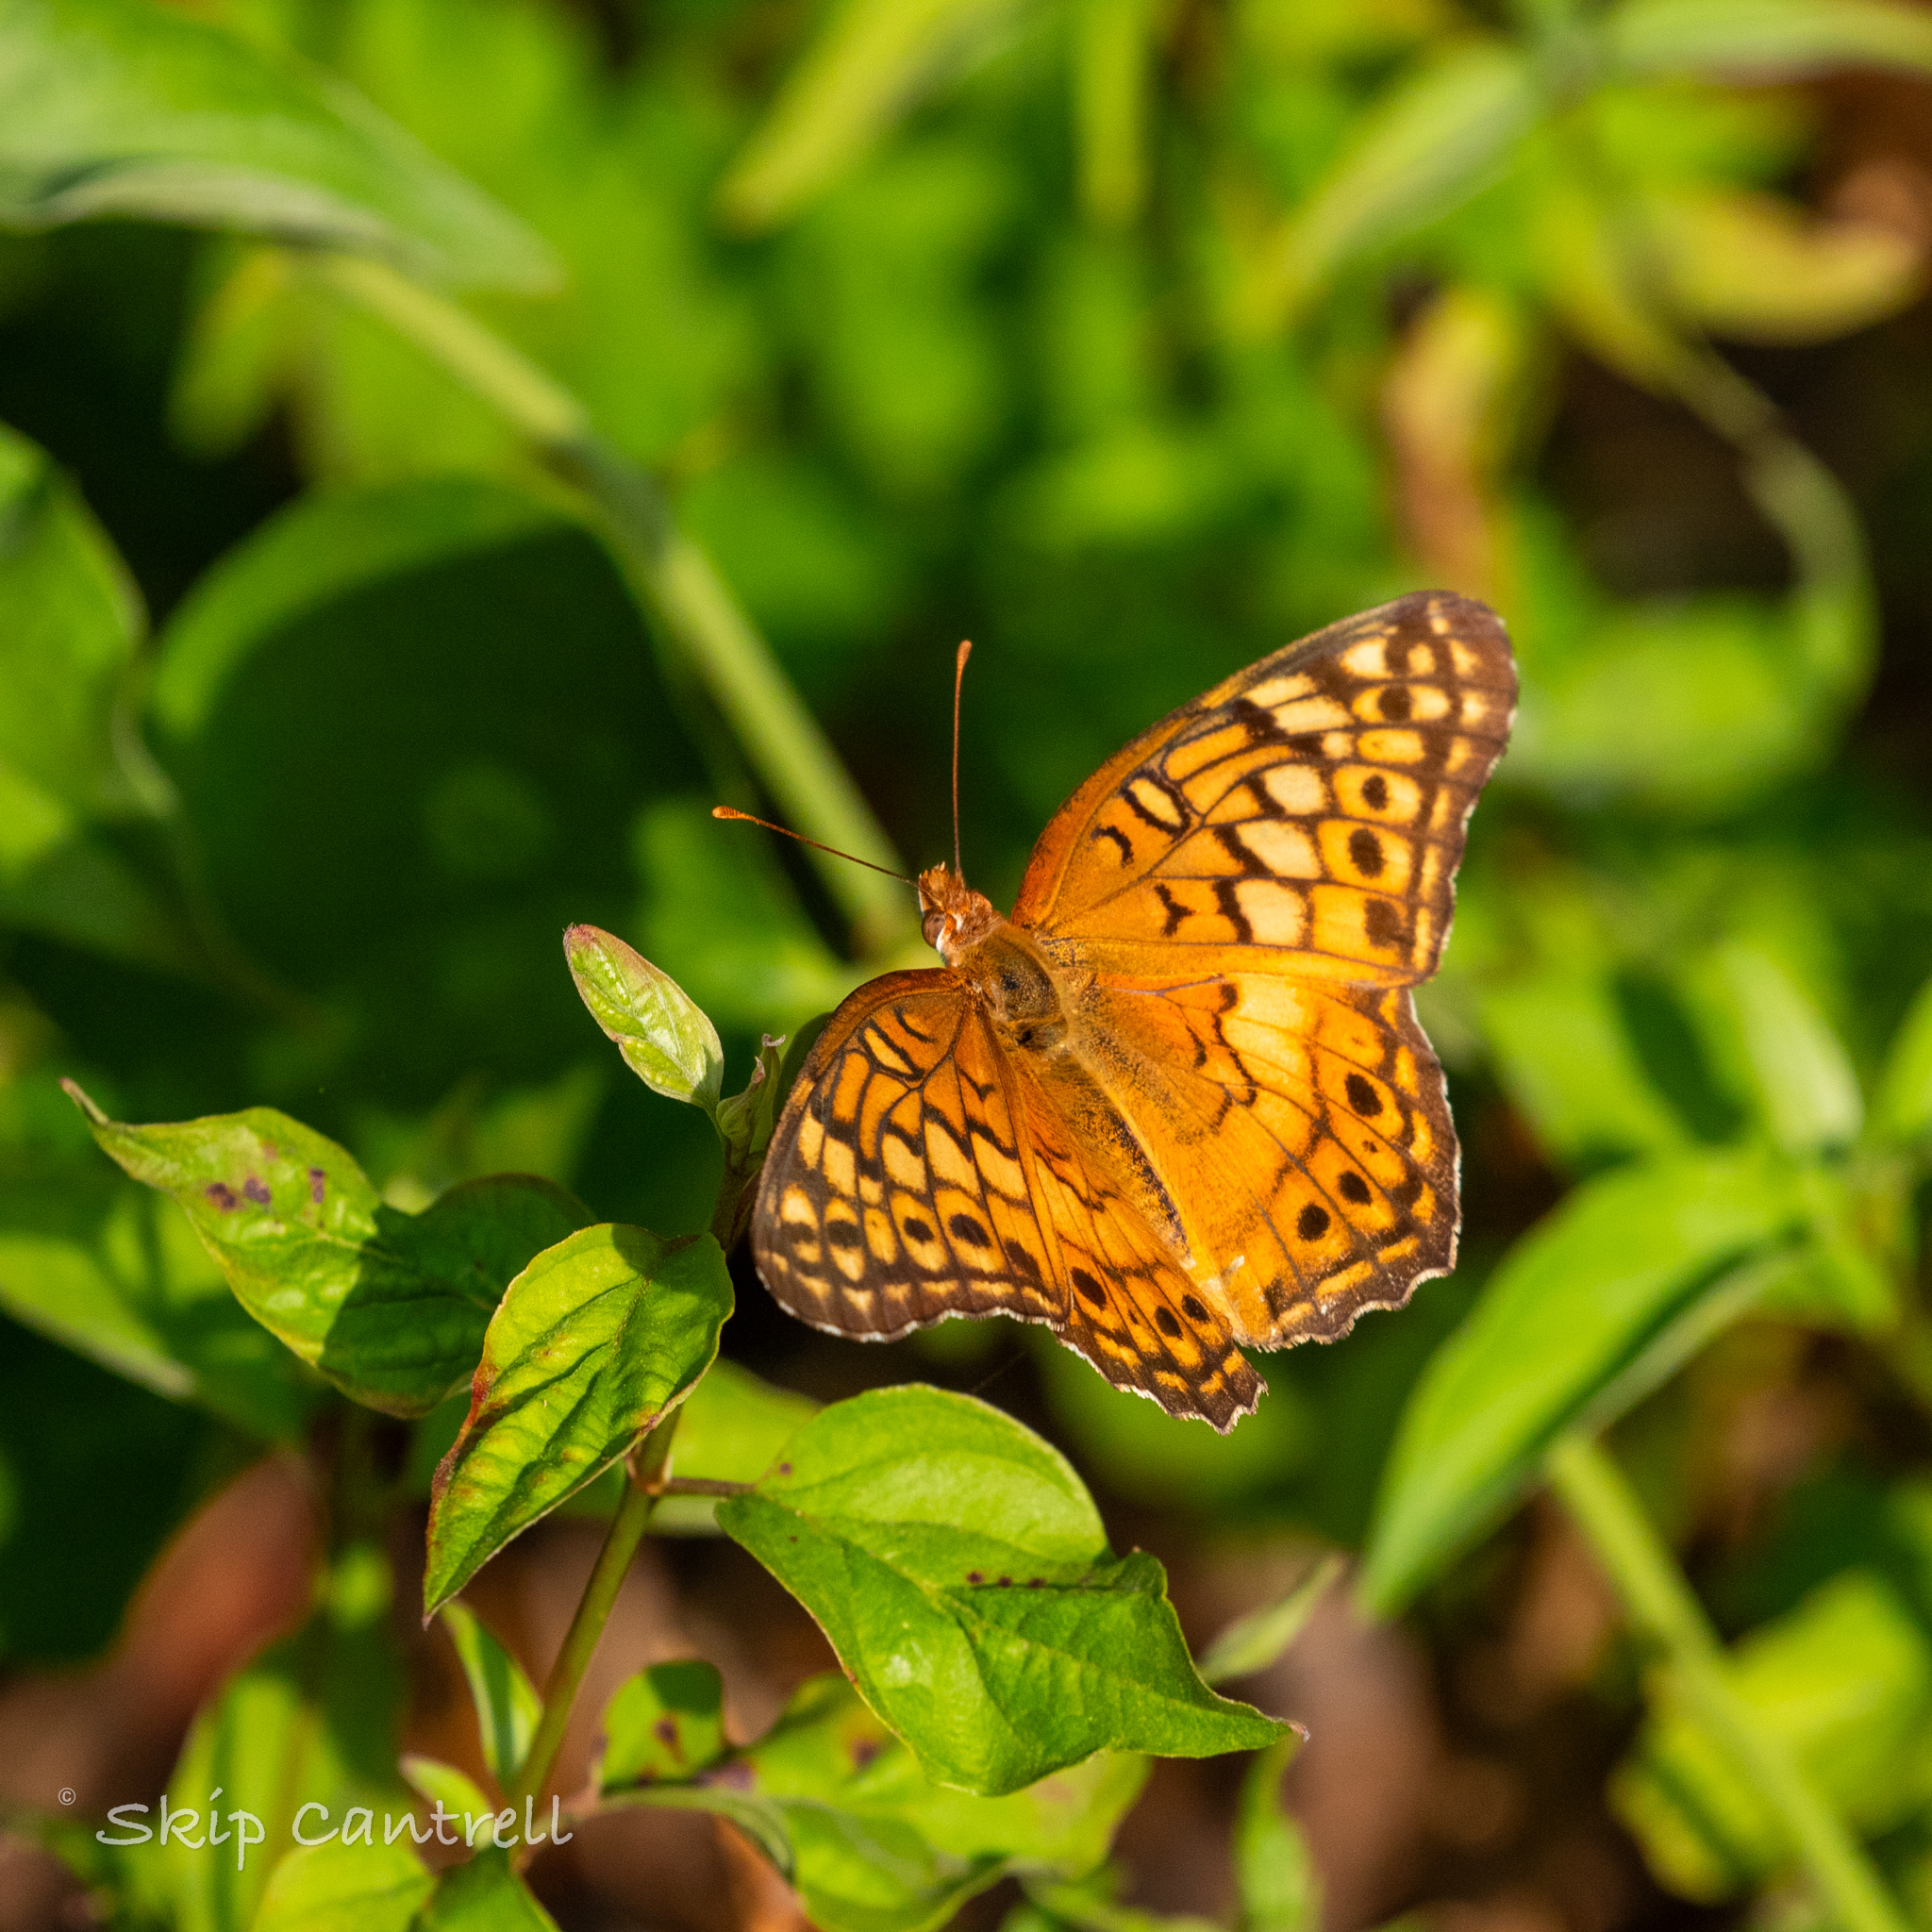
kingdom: Animalia
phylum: Arthropoda
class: Insecta
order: Lepidoptera
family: Nymphalidae
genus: Euptoieta
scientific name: Euptoieta claudia
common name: Variegated fritillary
